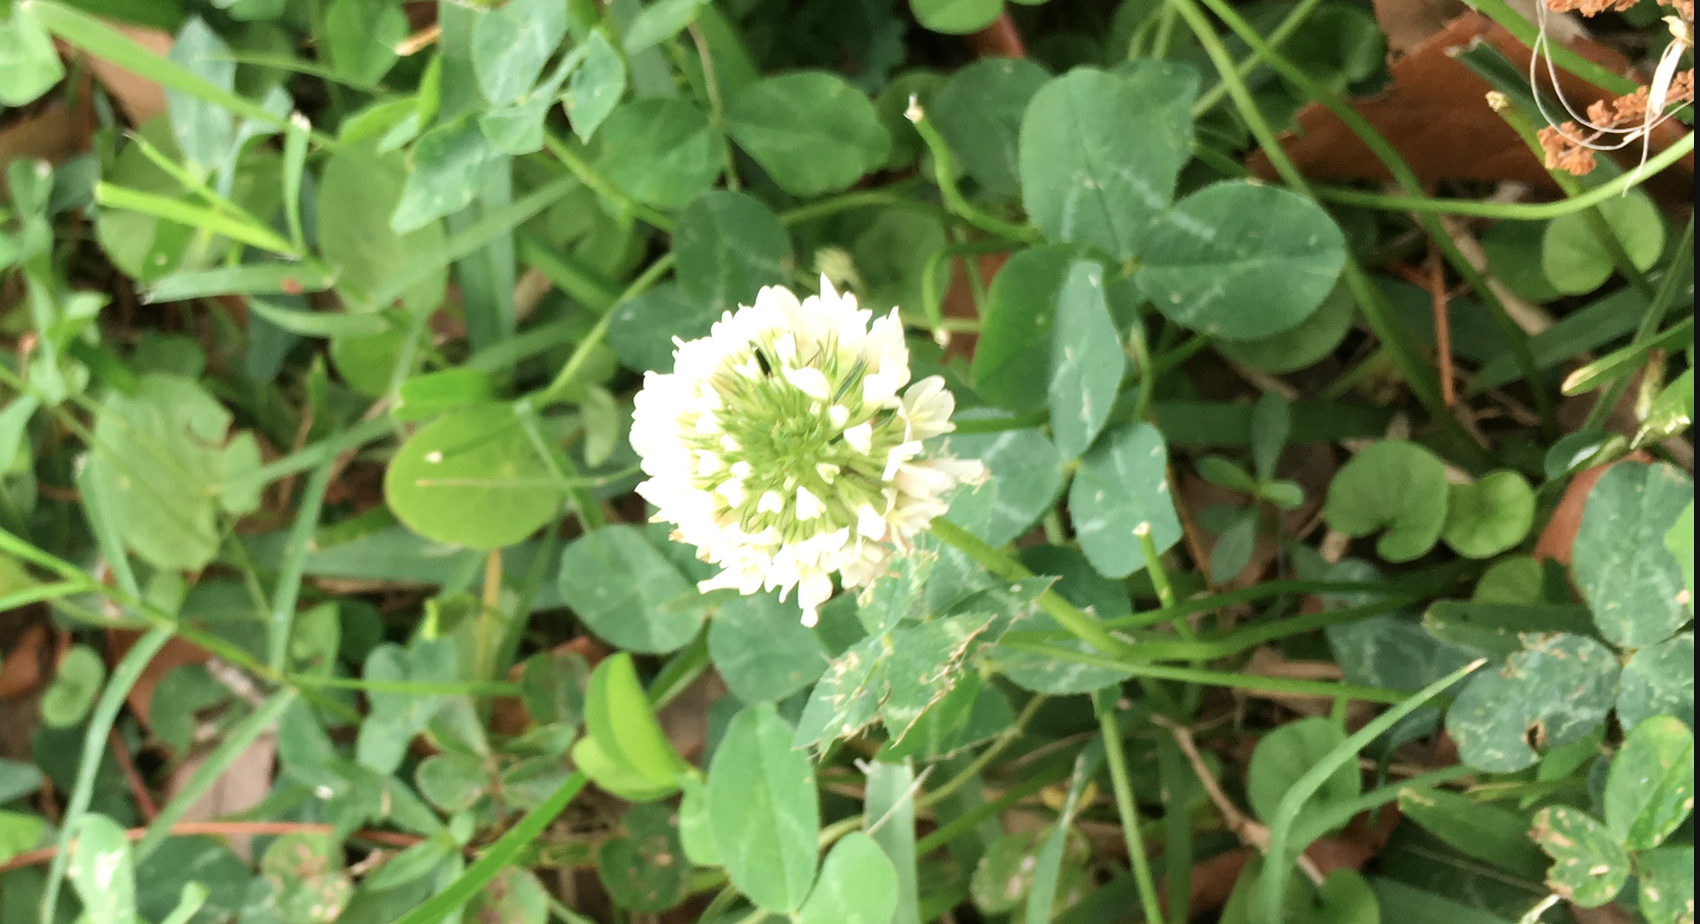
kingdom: Plantae
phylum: Tracheophyta
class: Magnoliopsida
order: Fabales
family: Fabaceae
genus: Trifolium
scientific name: Trifolium repens
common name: White clover
